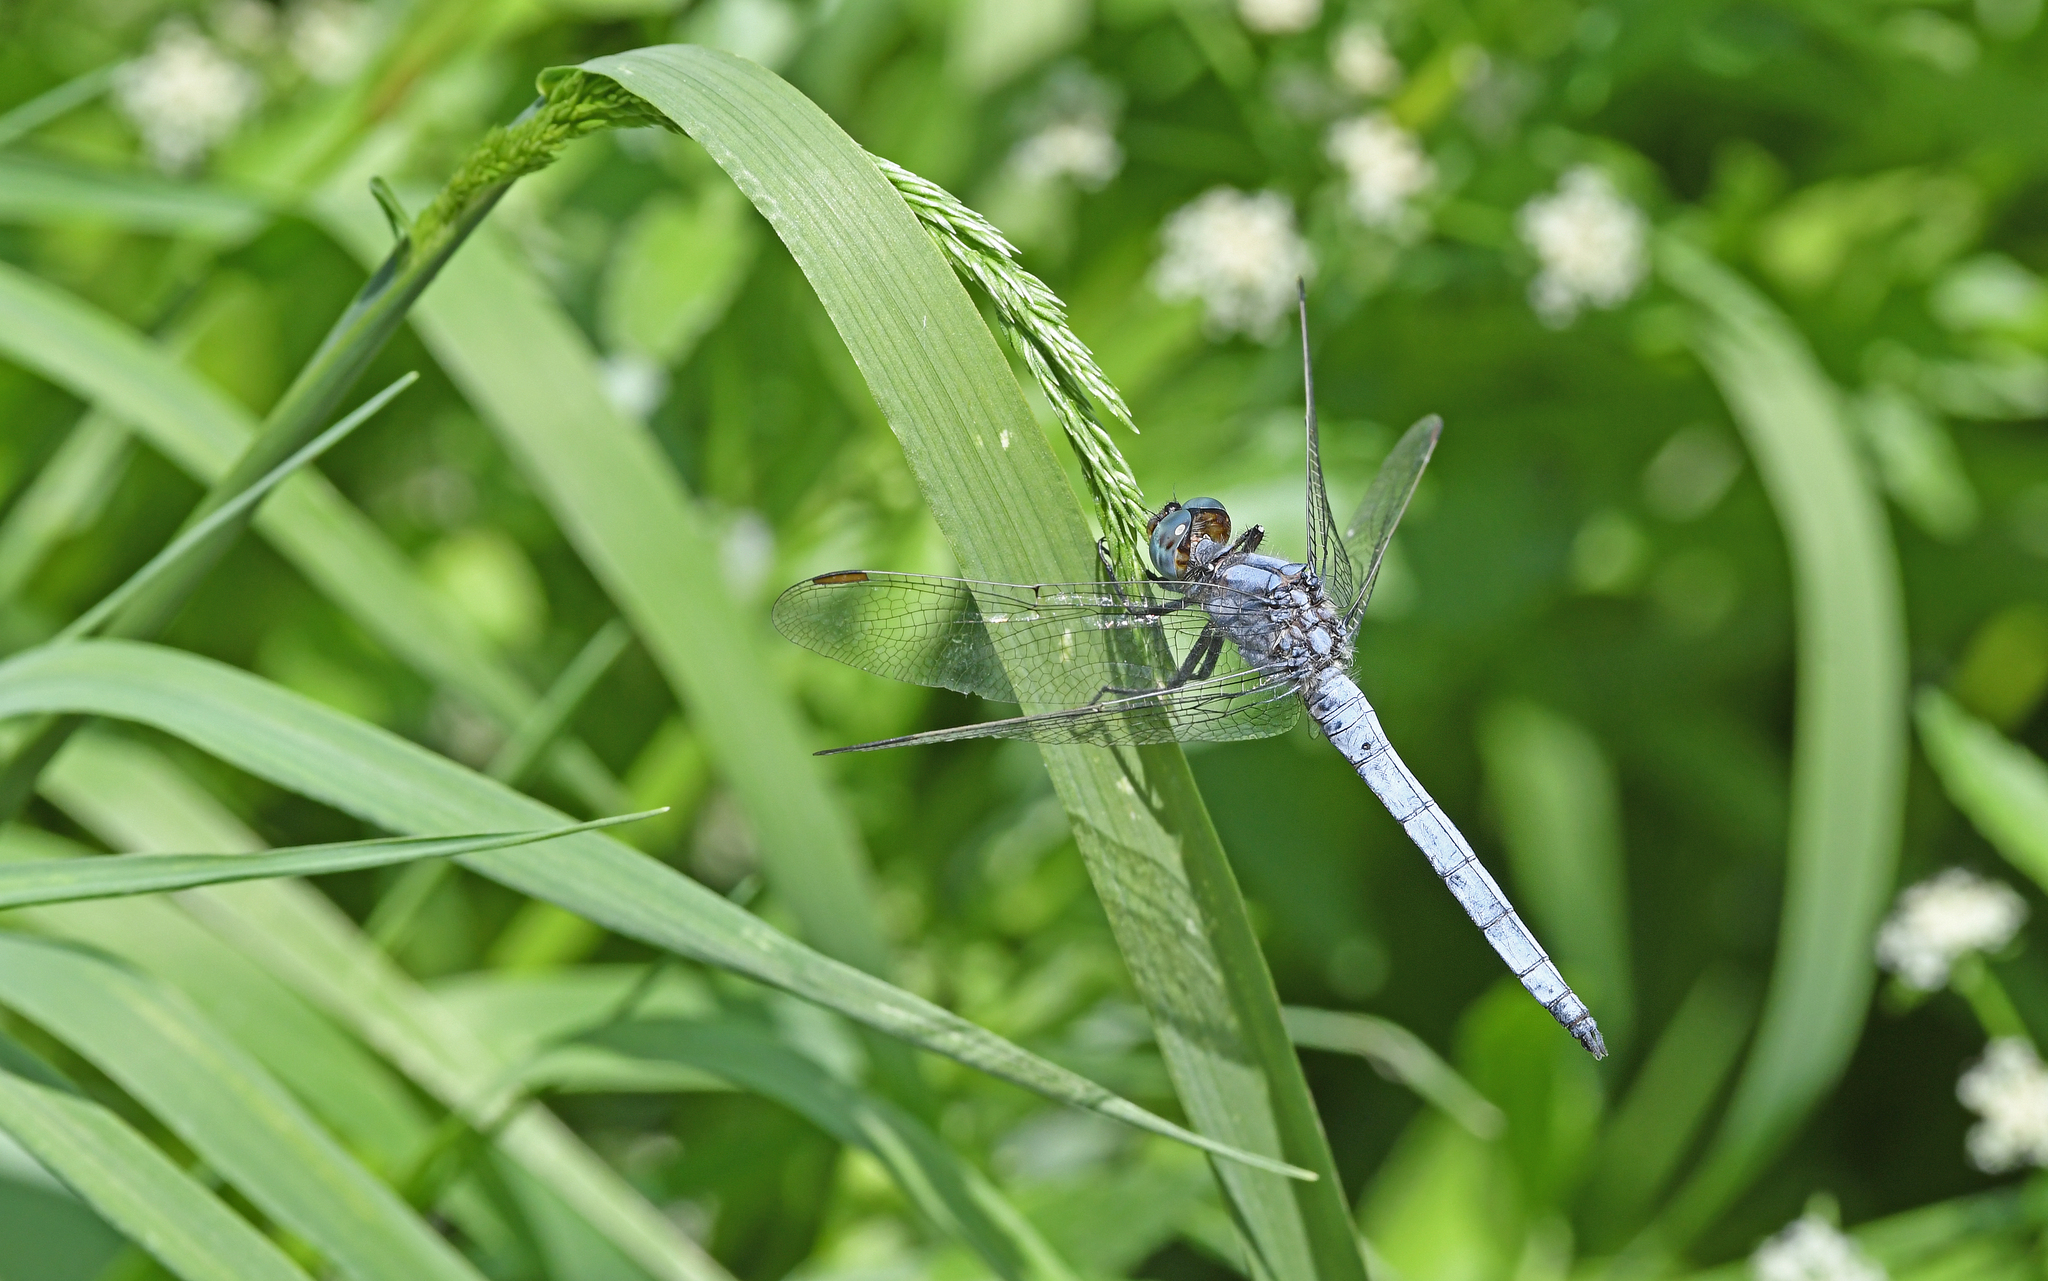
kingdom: Animalia
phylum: Arthropoda
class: Insecta
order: Odonata
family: Libellulidae
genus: Orthetrum
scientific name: Orthetrum coerulescens
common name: Keeled skimmer
